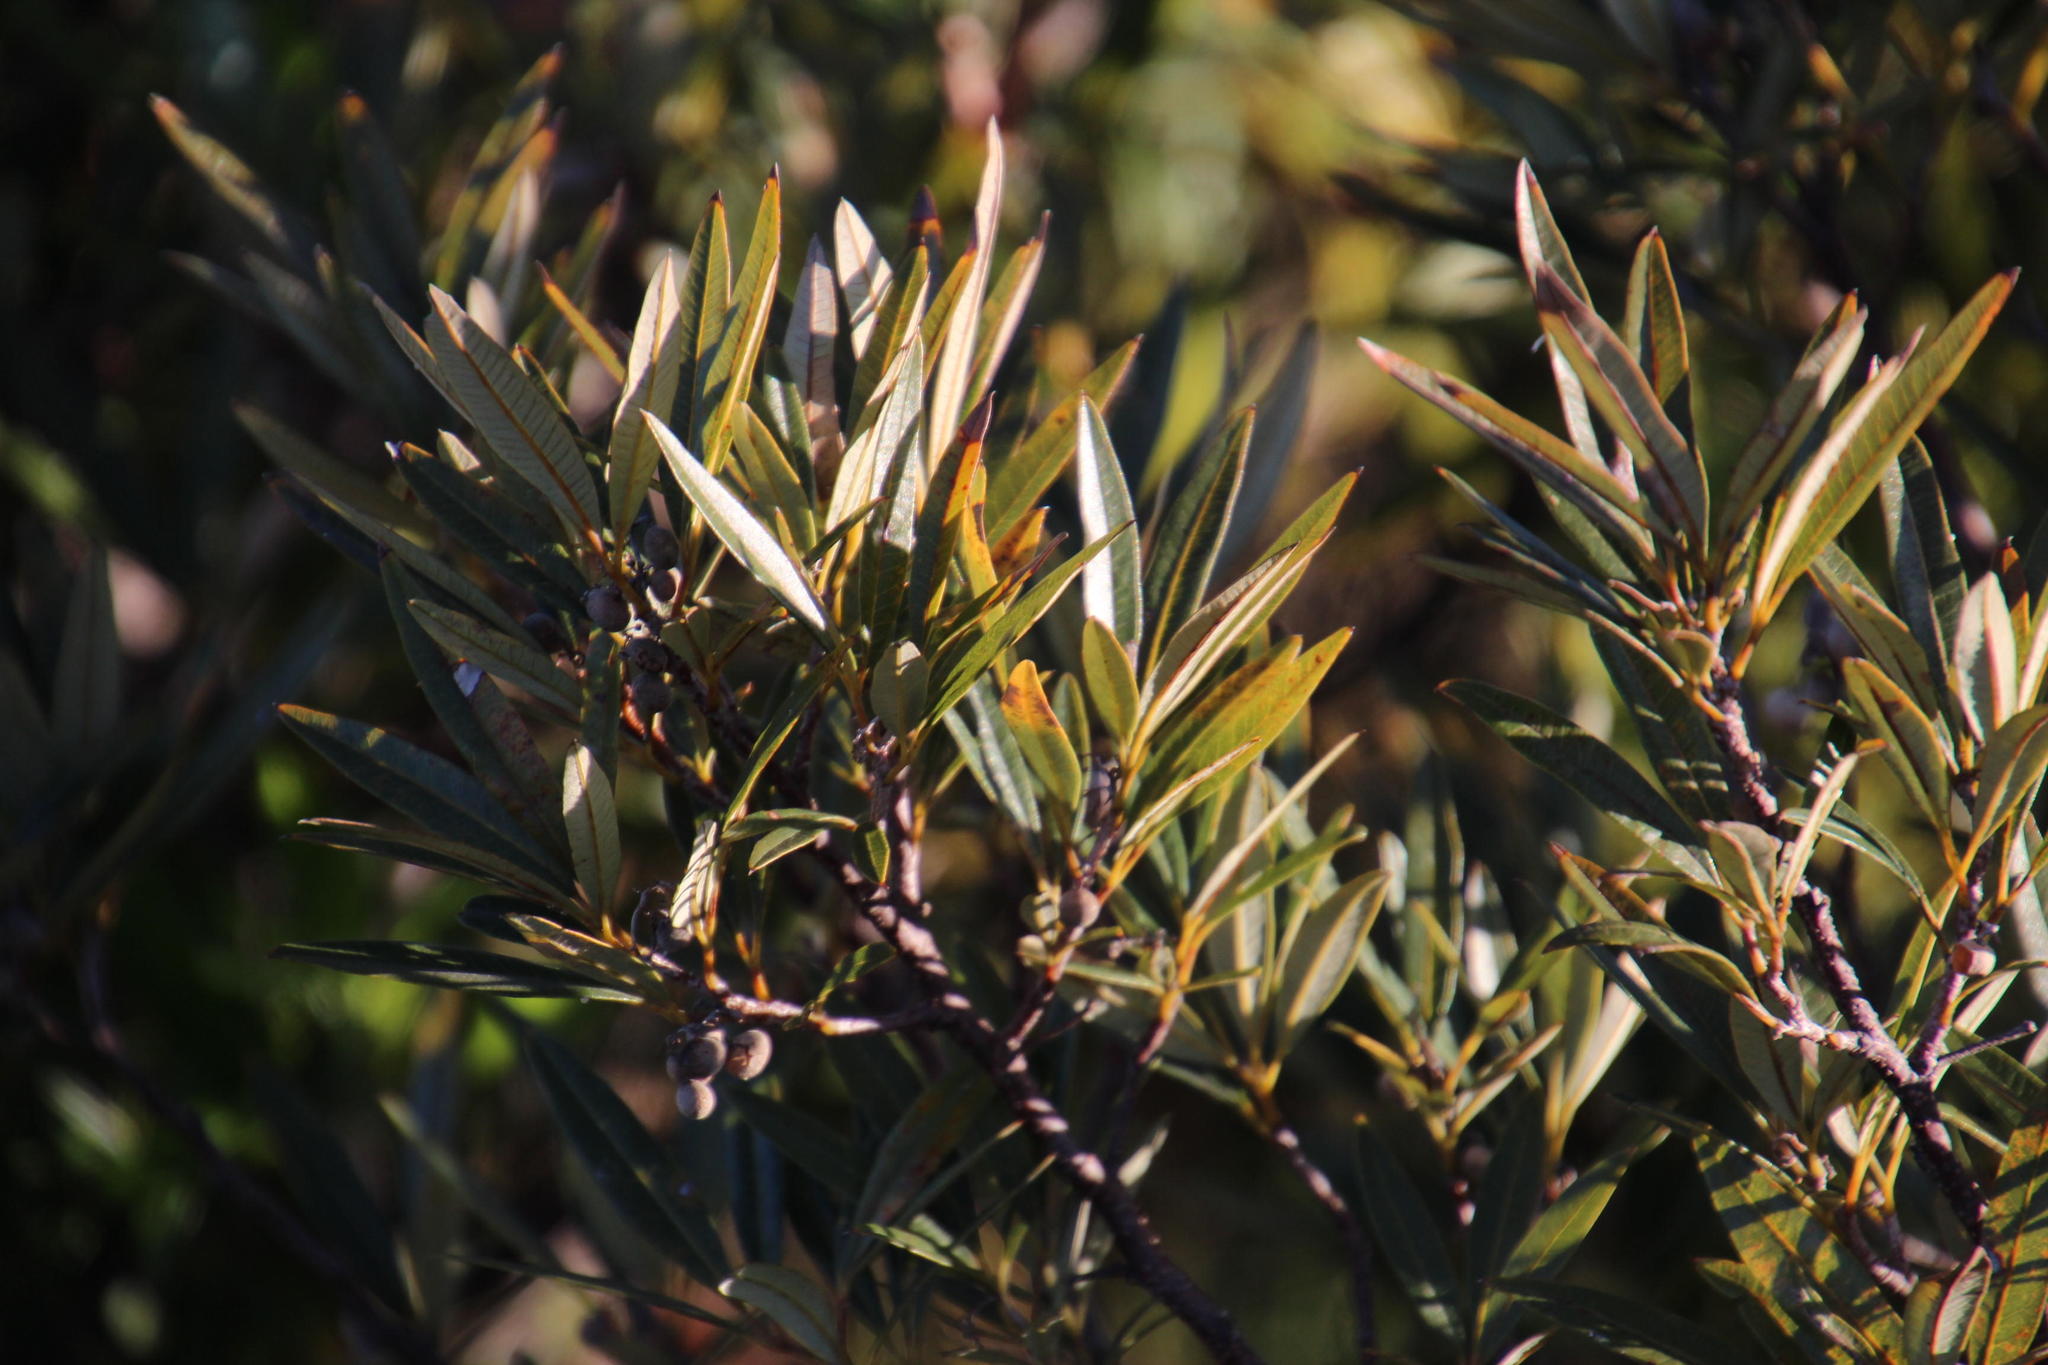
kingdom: Plantae
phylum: Tracheophyta
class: Magnoliopsida
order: Sapindales
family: Anacardiaceae
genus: Searsia
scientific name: Searsia angustifolia
